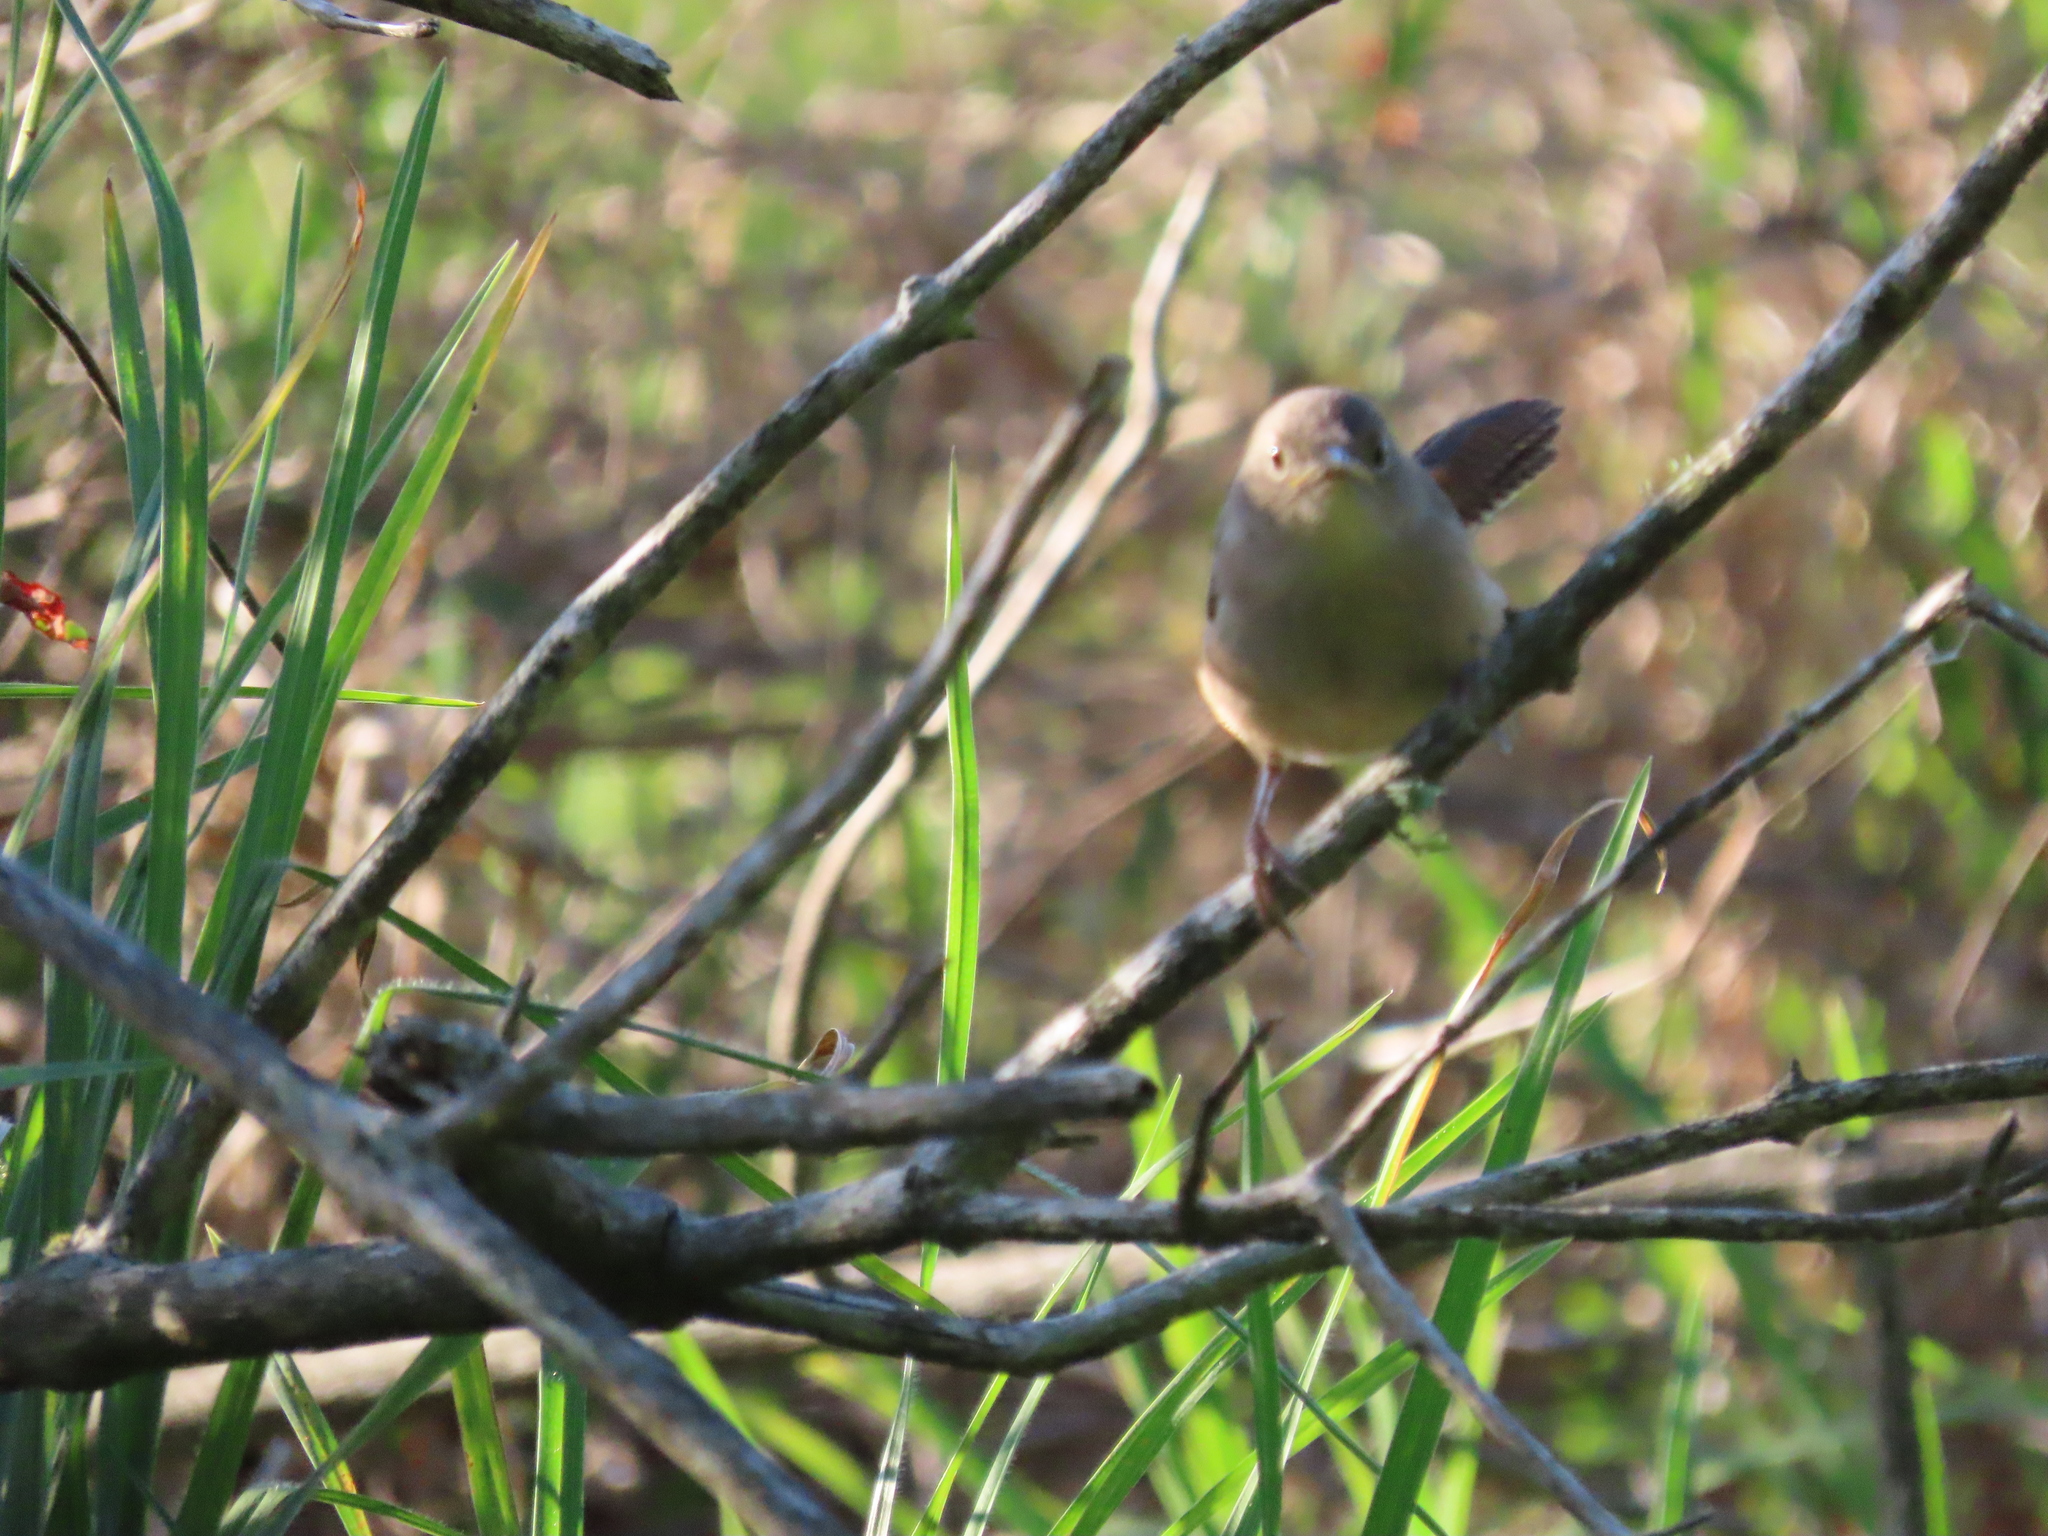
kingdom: Animalia
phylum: Chordata
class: Aves
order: Passeriformes
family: Troglodytidae
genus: Troglodytes
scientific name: Troglodytes aedon
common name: House wren
